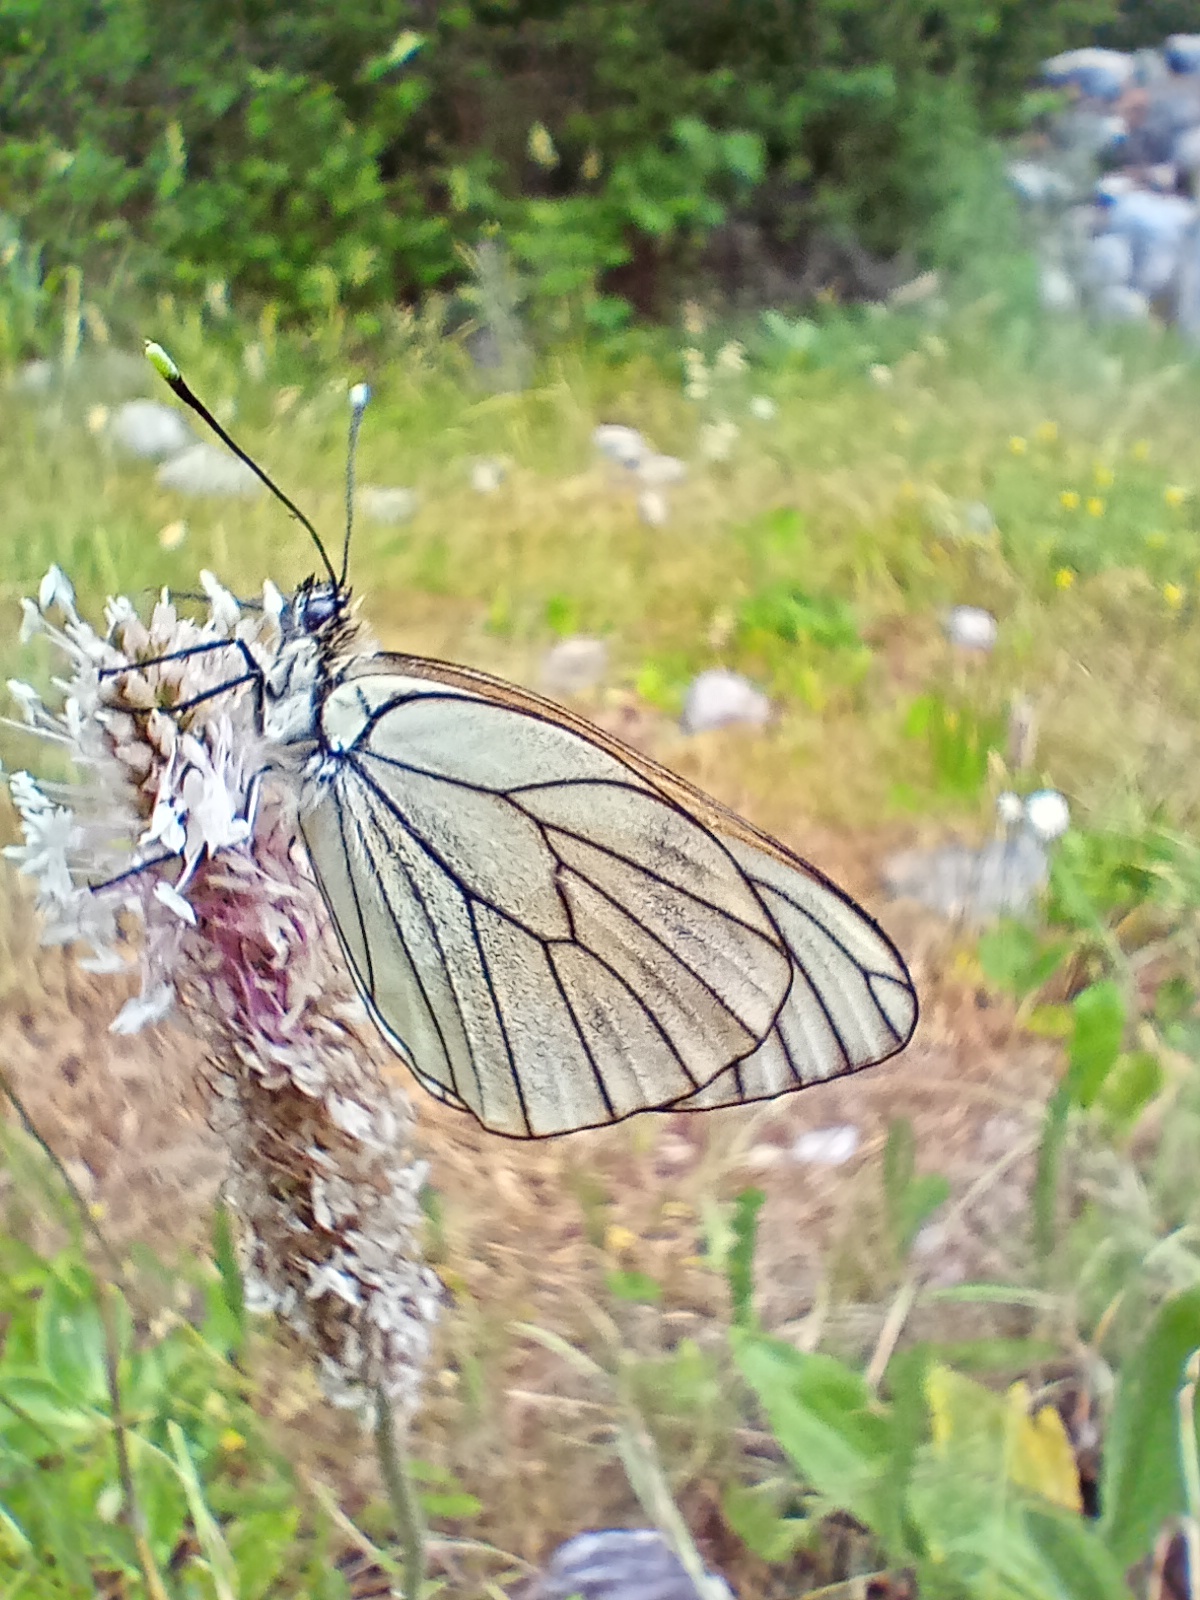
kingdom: Animalia
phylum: Arthropoda
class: Insecta
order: Lepidoptera
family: Pieridae
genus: Aporia
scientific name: Aporia crataegi
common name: Black-veined white
